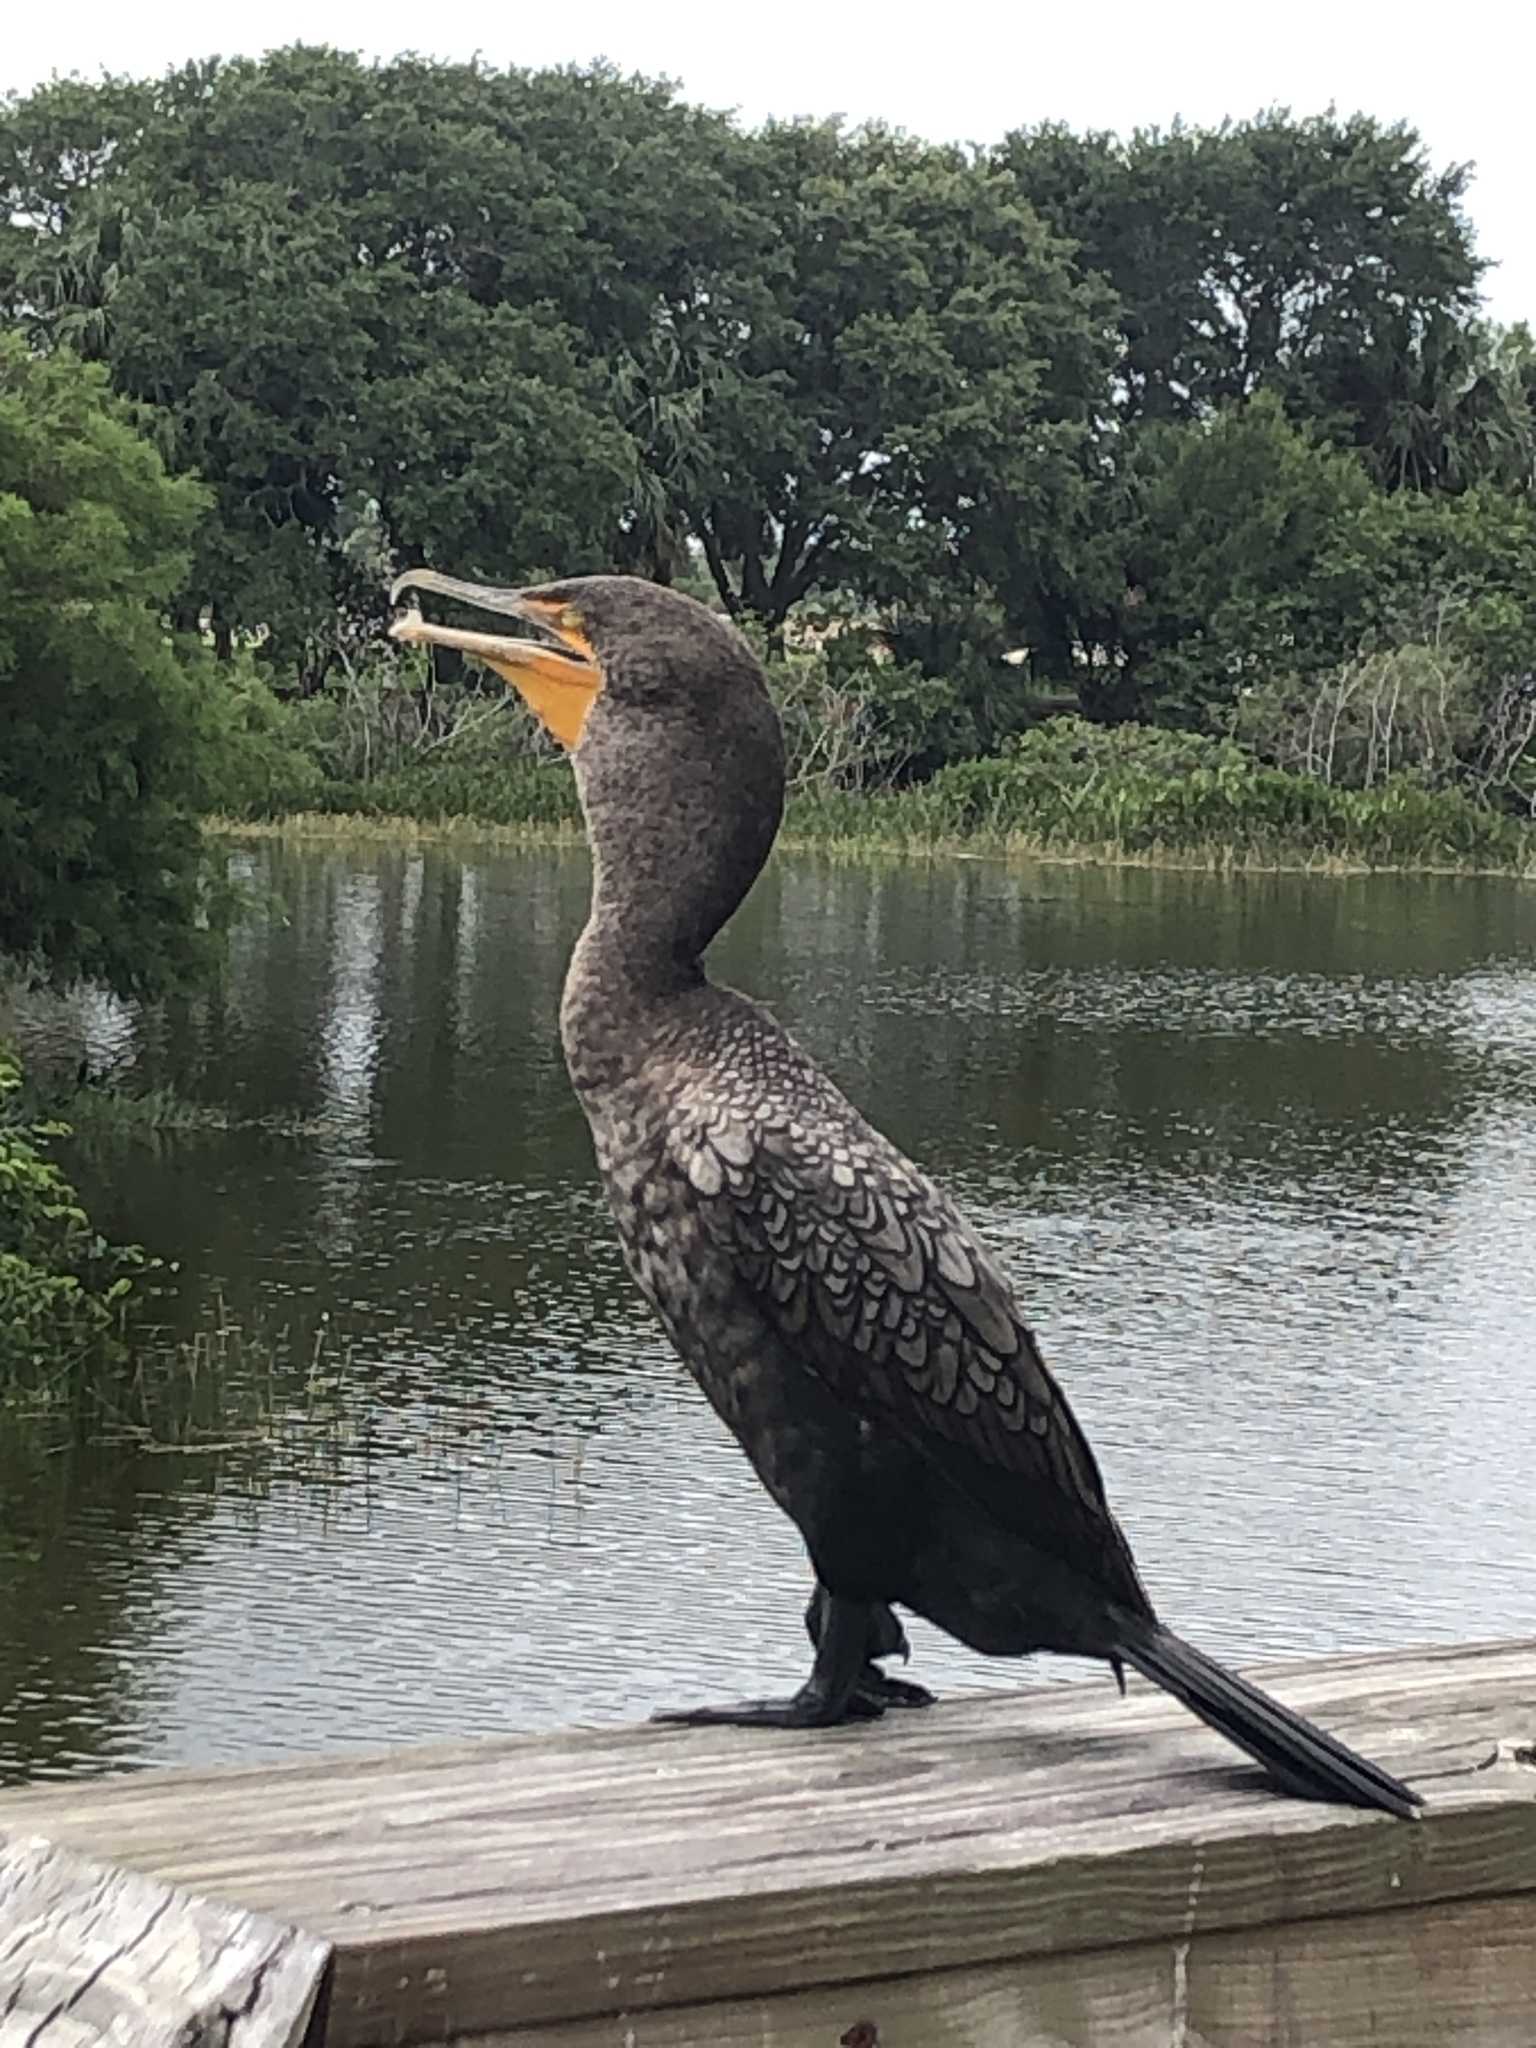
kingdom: Animalia
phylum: Chordata
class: Aves
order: Suliformes
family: Phalacrocoracidae
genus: Phalacrocorax
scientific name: Phalacrocorax auritus
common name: Double-crested cormorant
